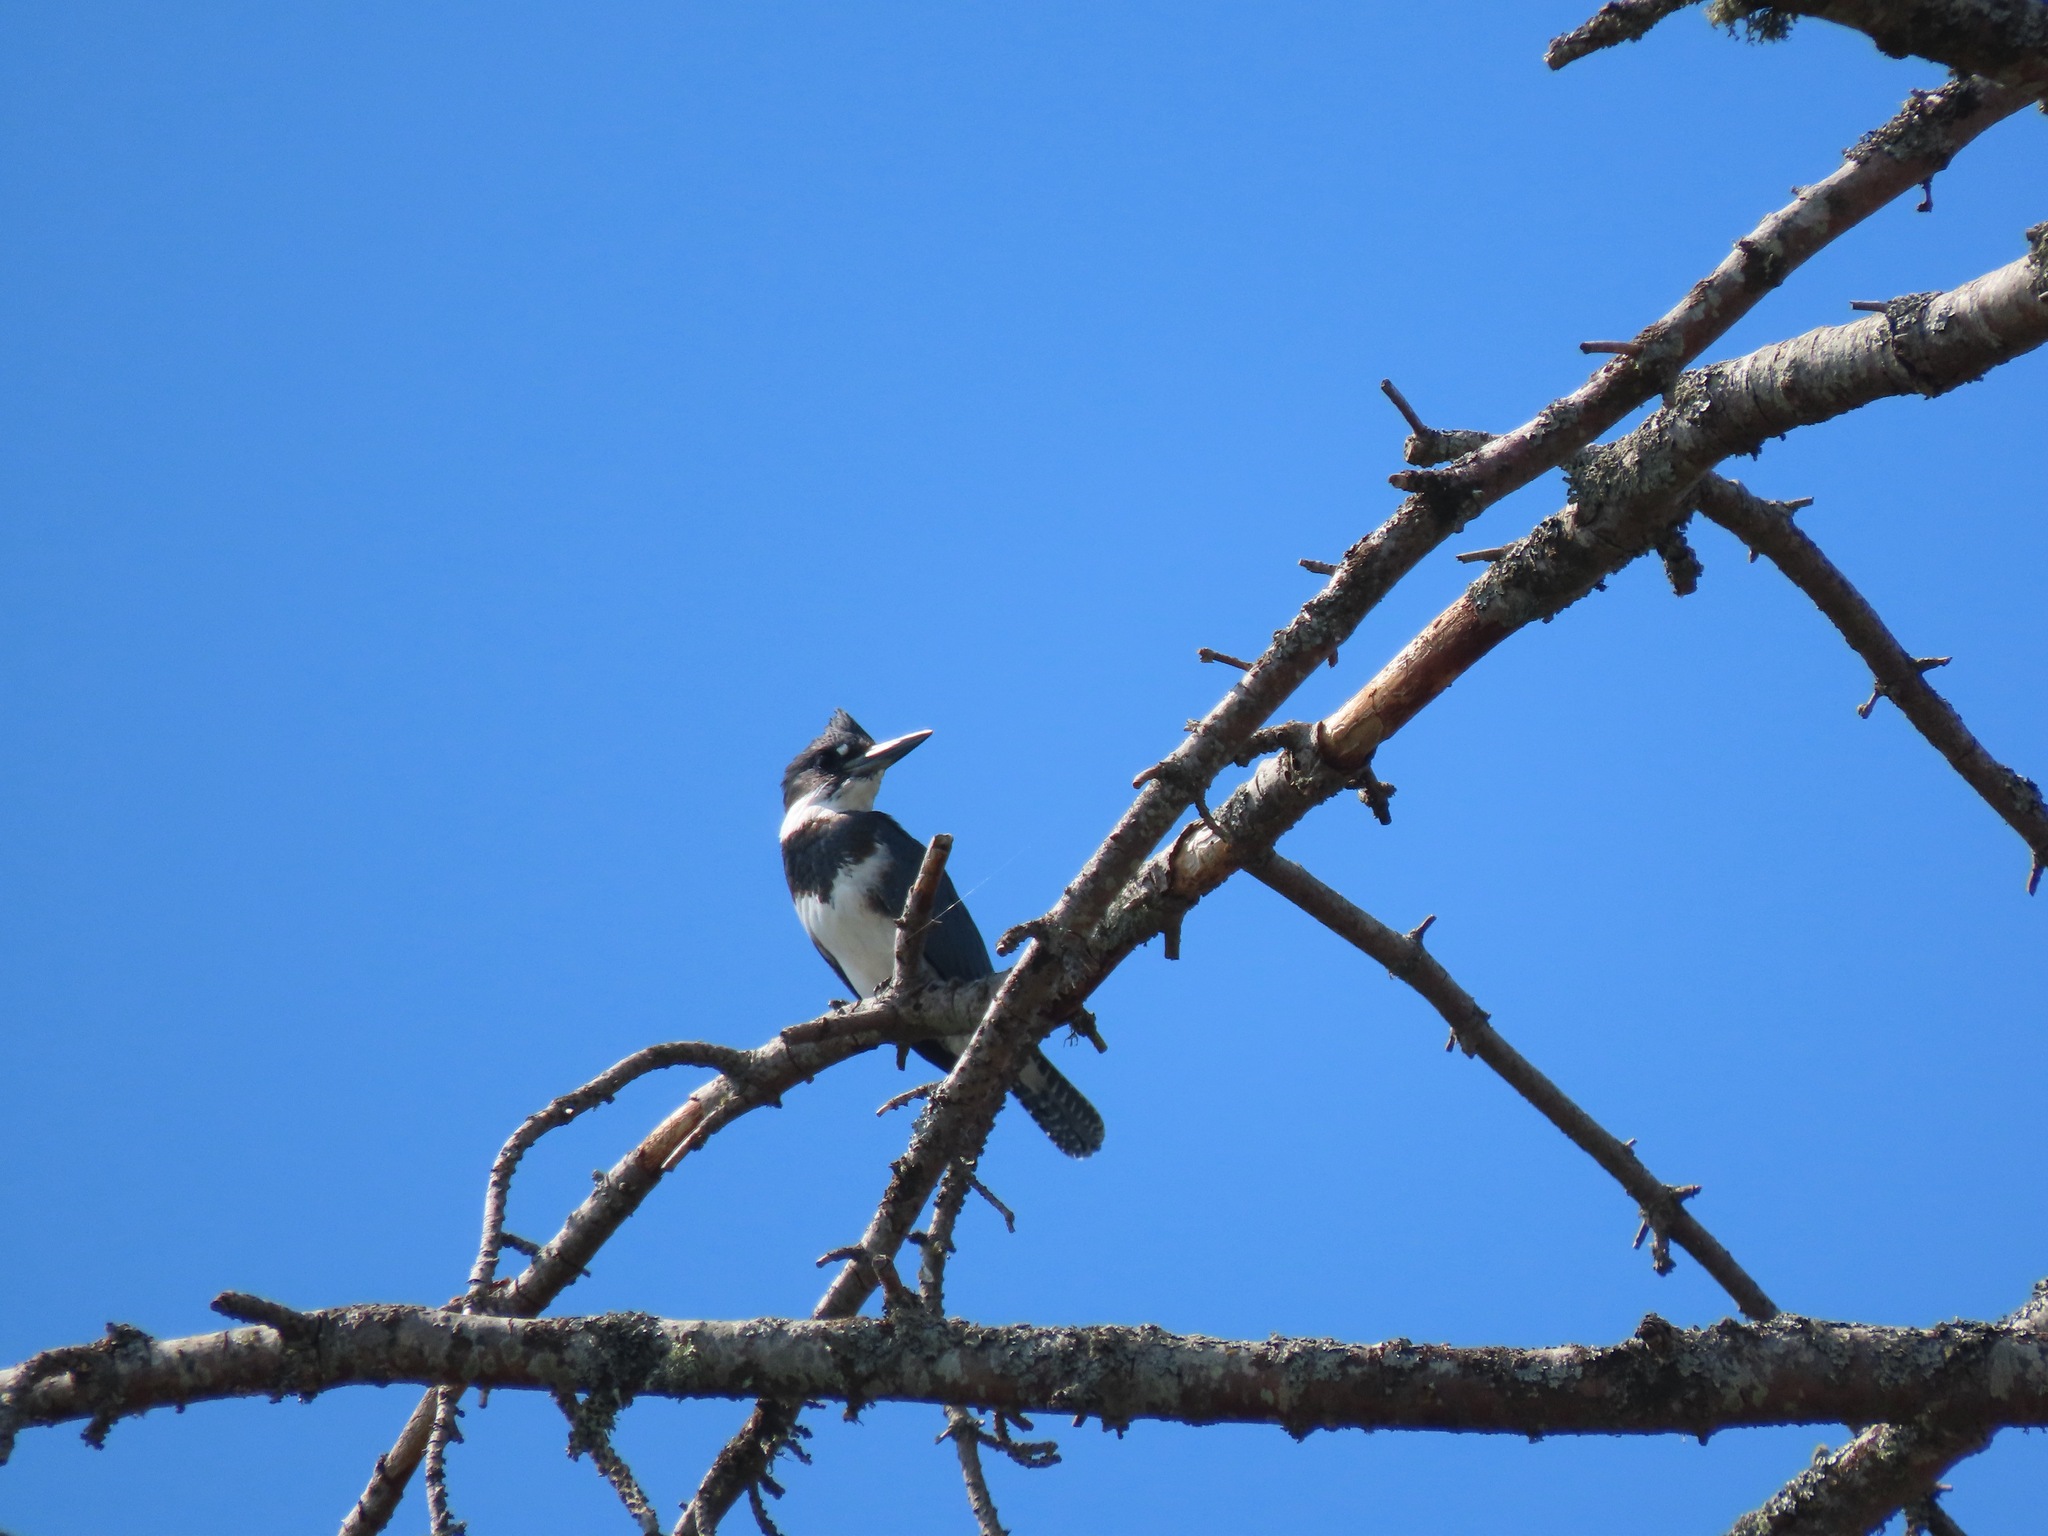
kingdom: Animalia
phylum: Chordata
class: Aves
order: Coraciiformes
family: Alcedinidae
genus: Megaceryle
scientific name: Megaceryle alcyon
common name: Belted kingfisher
